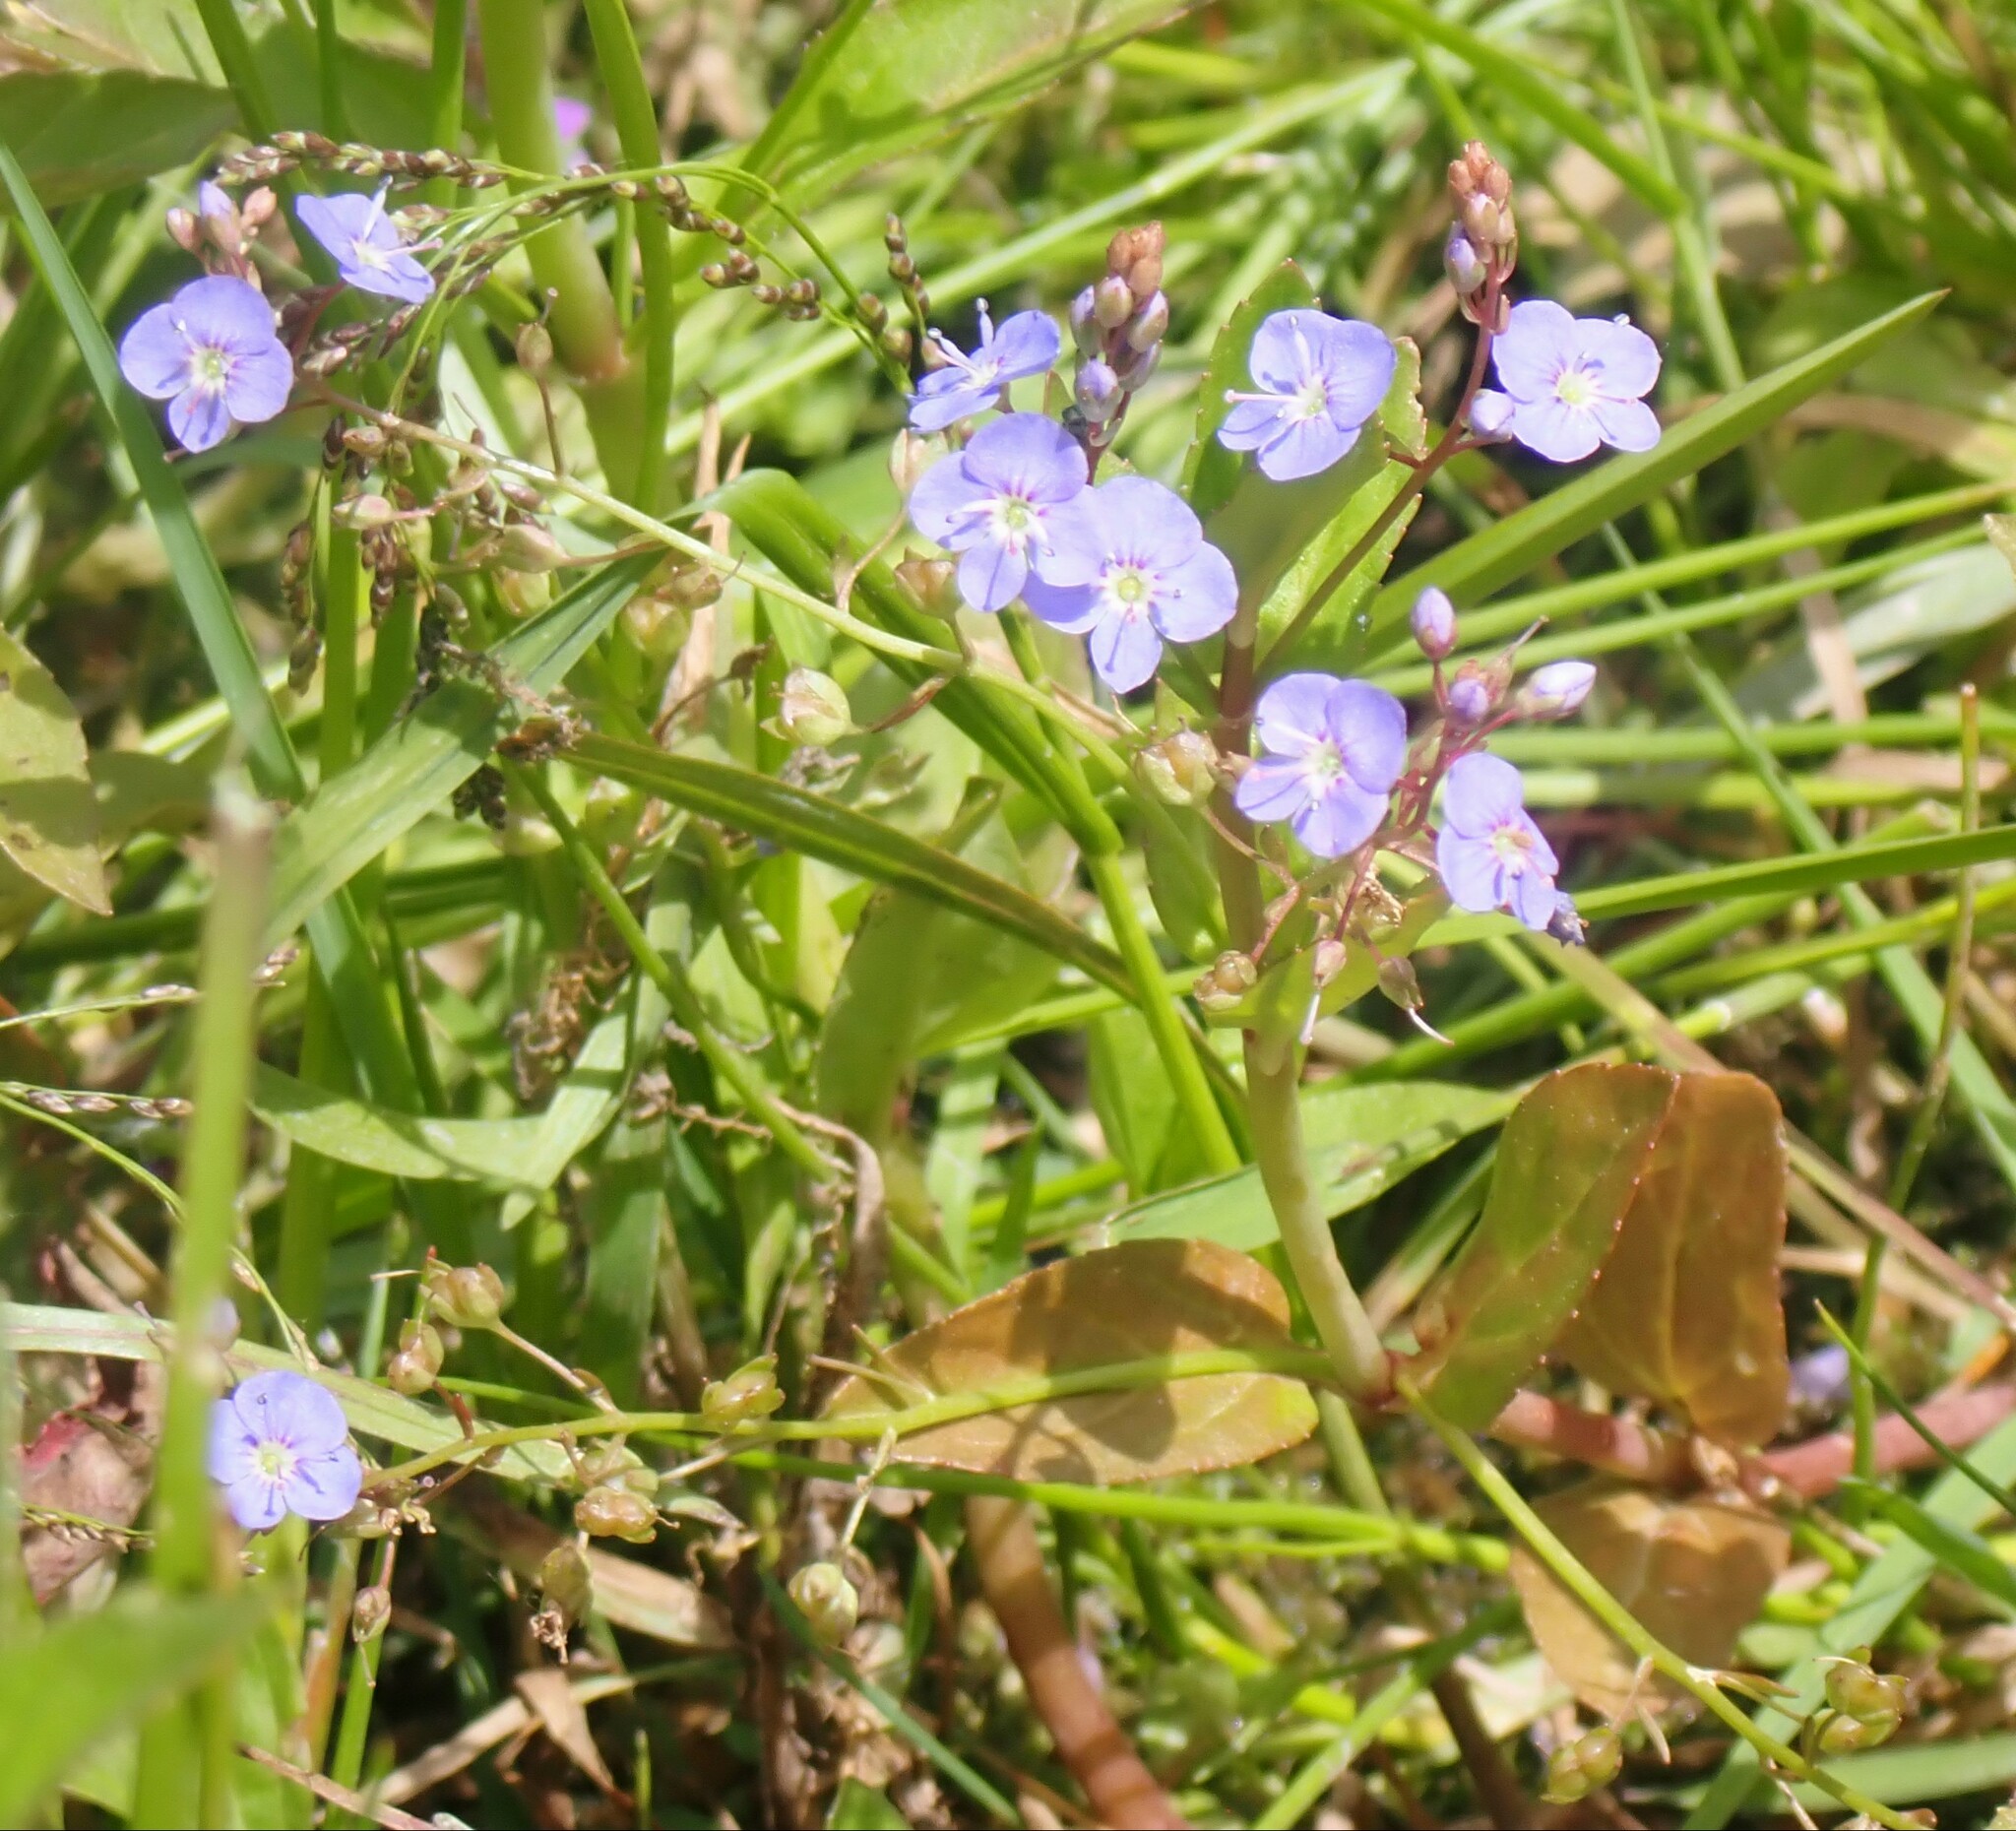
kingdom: Plantae
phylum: Tracheophyta
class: Magnoliopsida
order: Lamiales
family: Plantaginaceae
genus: Veronica
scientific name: Veronica americana
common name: American brooklime
